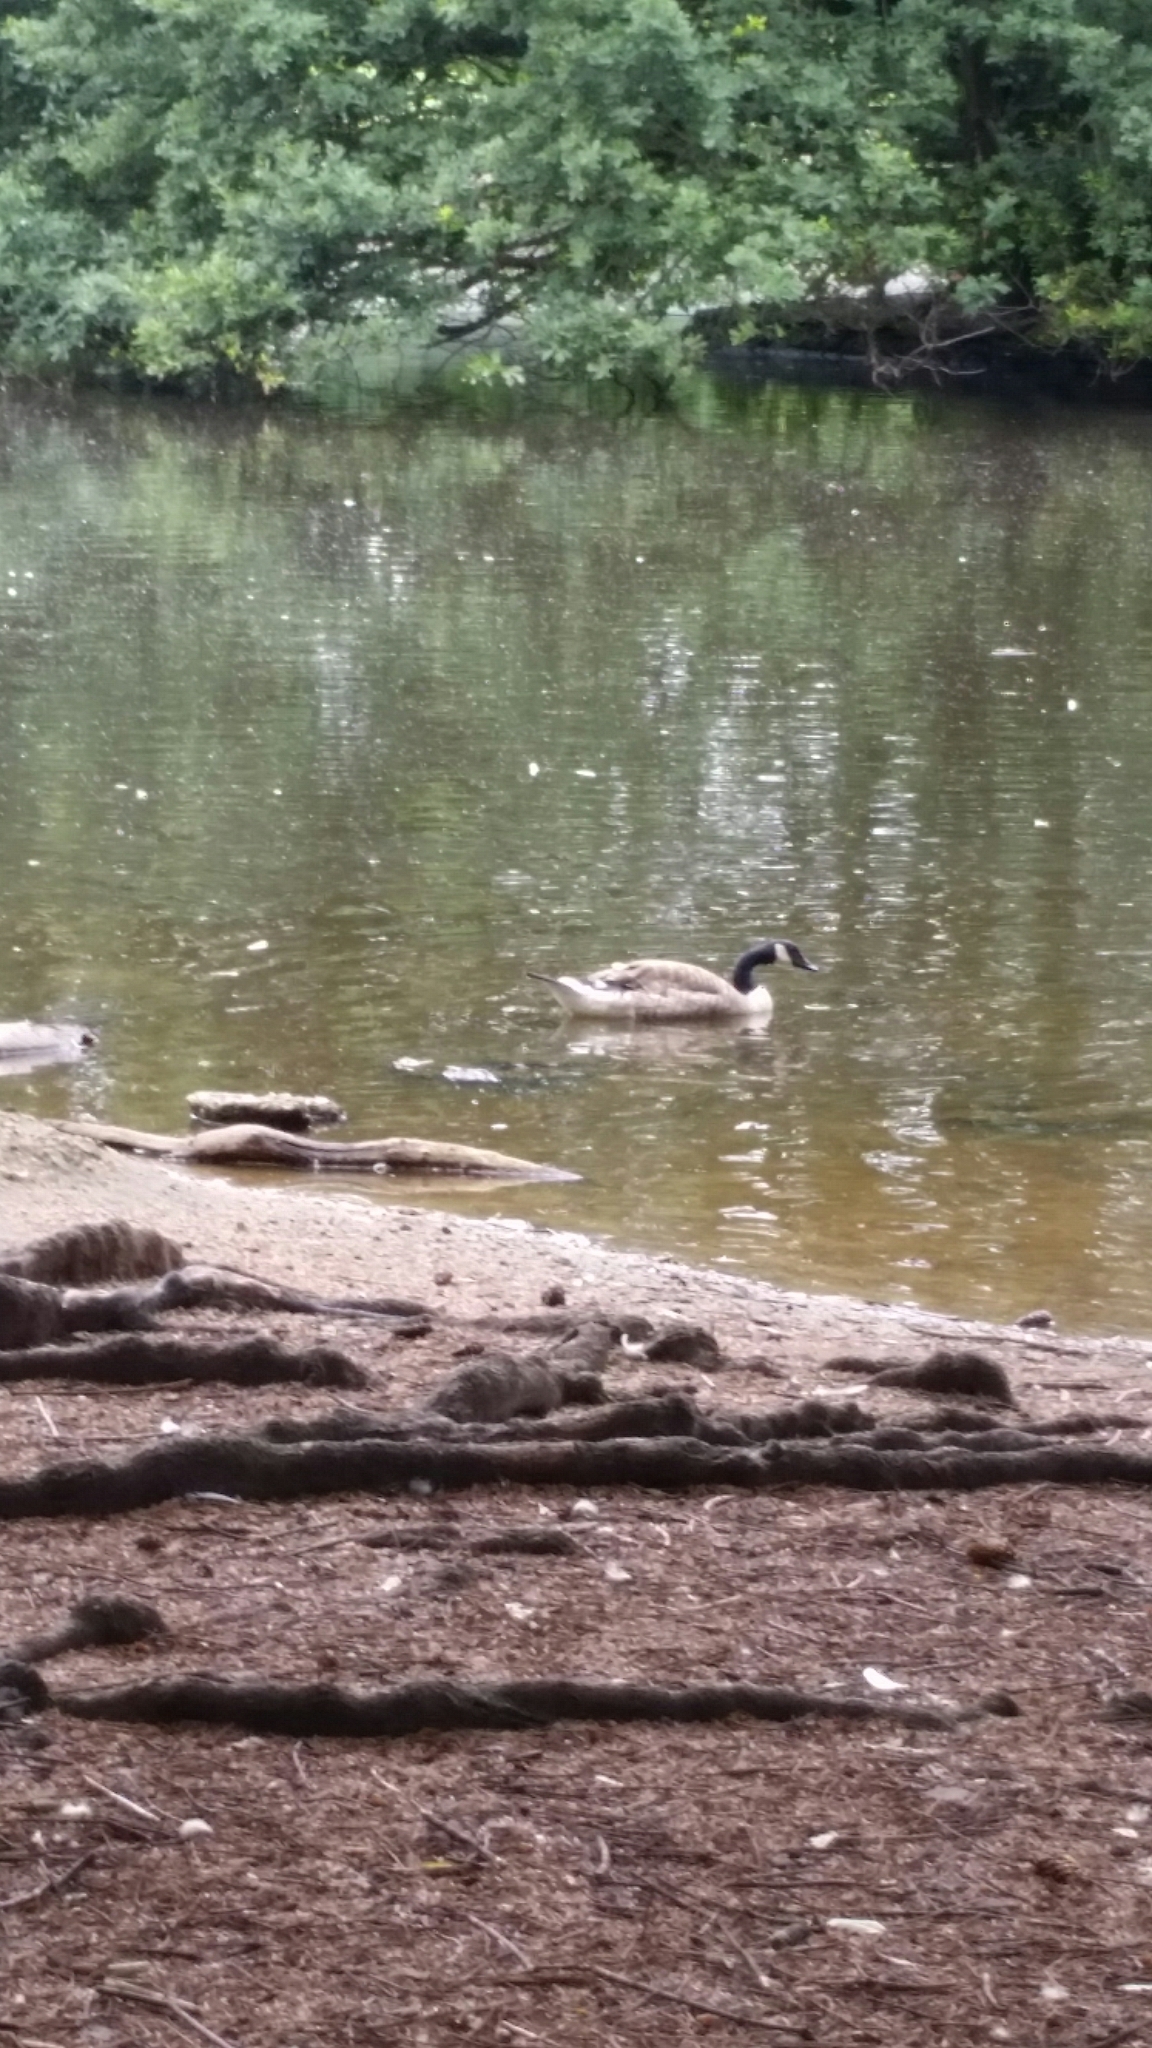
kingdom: Animalia
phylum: Chordata
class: Aves
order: Anseriformes
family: Anatidae
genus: Branta
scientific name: Branta canadensis
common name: Canada goose
